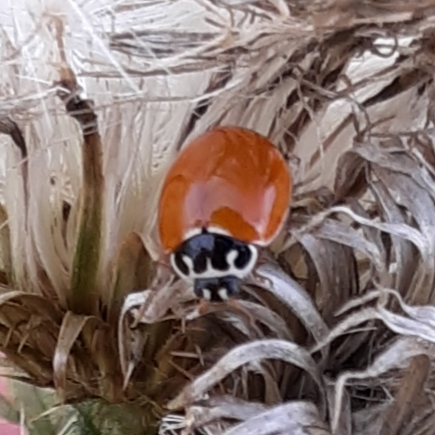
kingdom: Animalia
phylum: Arthropoda
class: Insecta
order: Coleoptera
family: Coccinellidae
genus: Cycloneda
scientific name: Cycloneda munda
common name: Polished lady beetle
